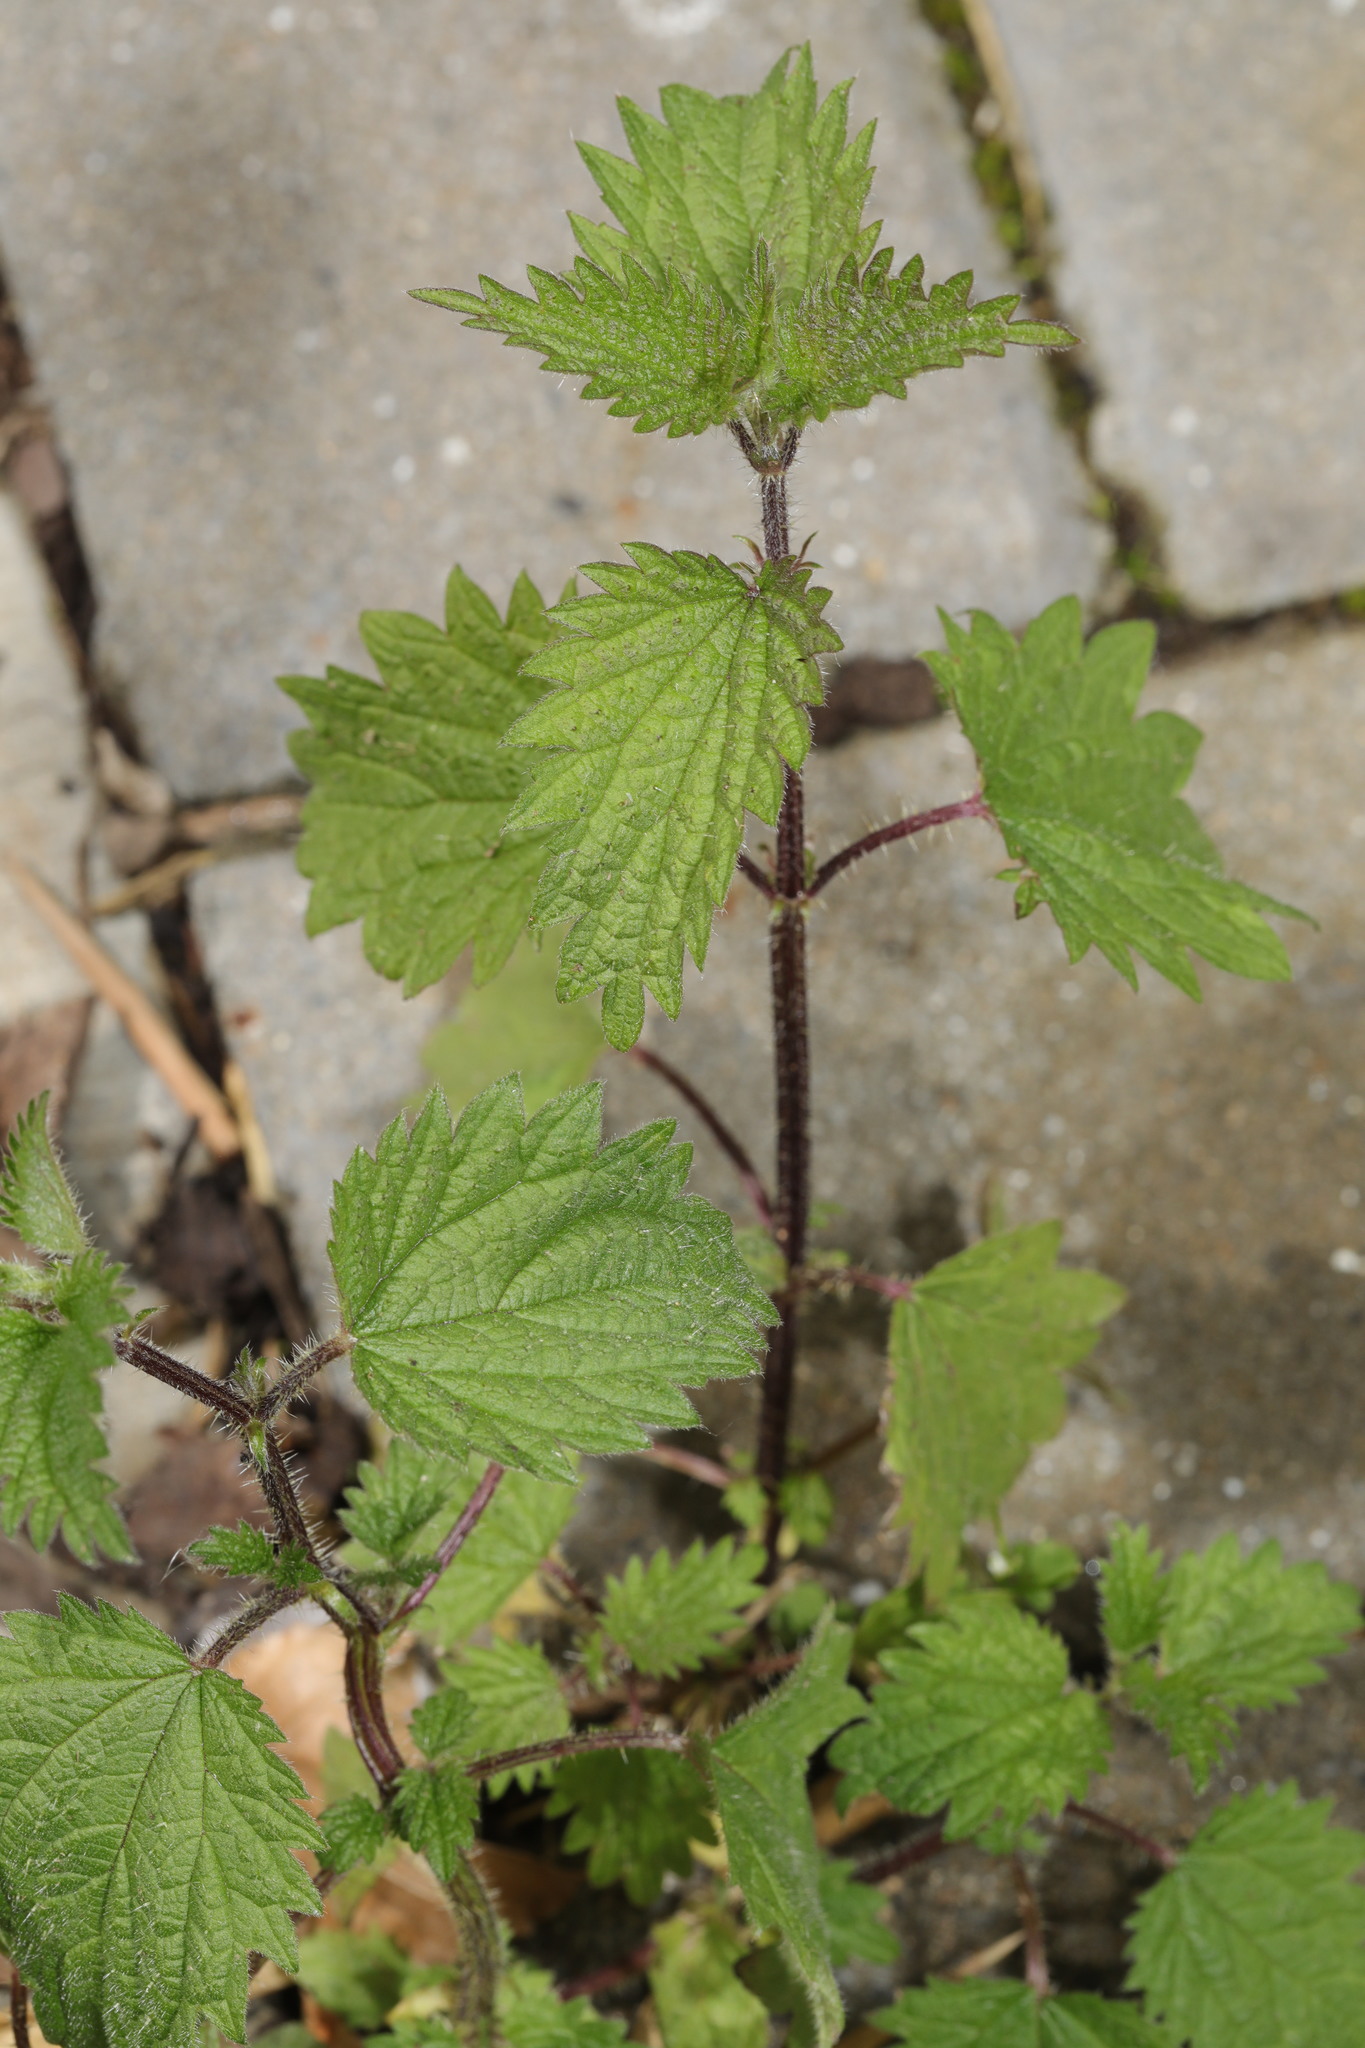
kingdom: Plantae
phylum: Tracheophyta
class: Magnoliopsida
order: Rosales
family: Urticaceae
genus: Urtica
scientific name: Urtica dioica
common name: Common nettle
